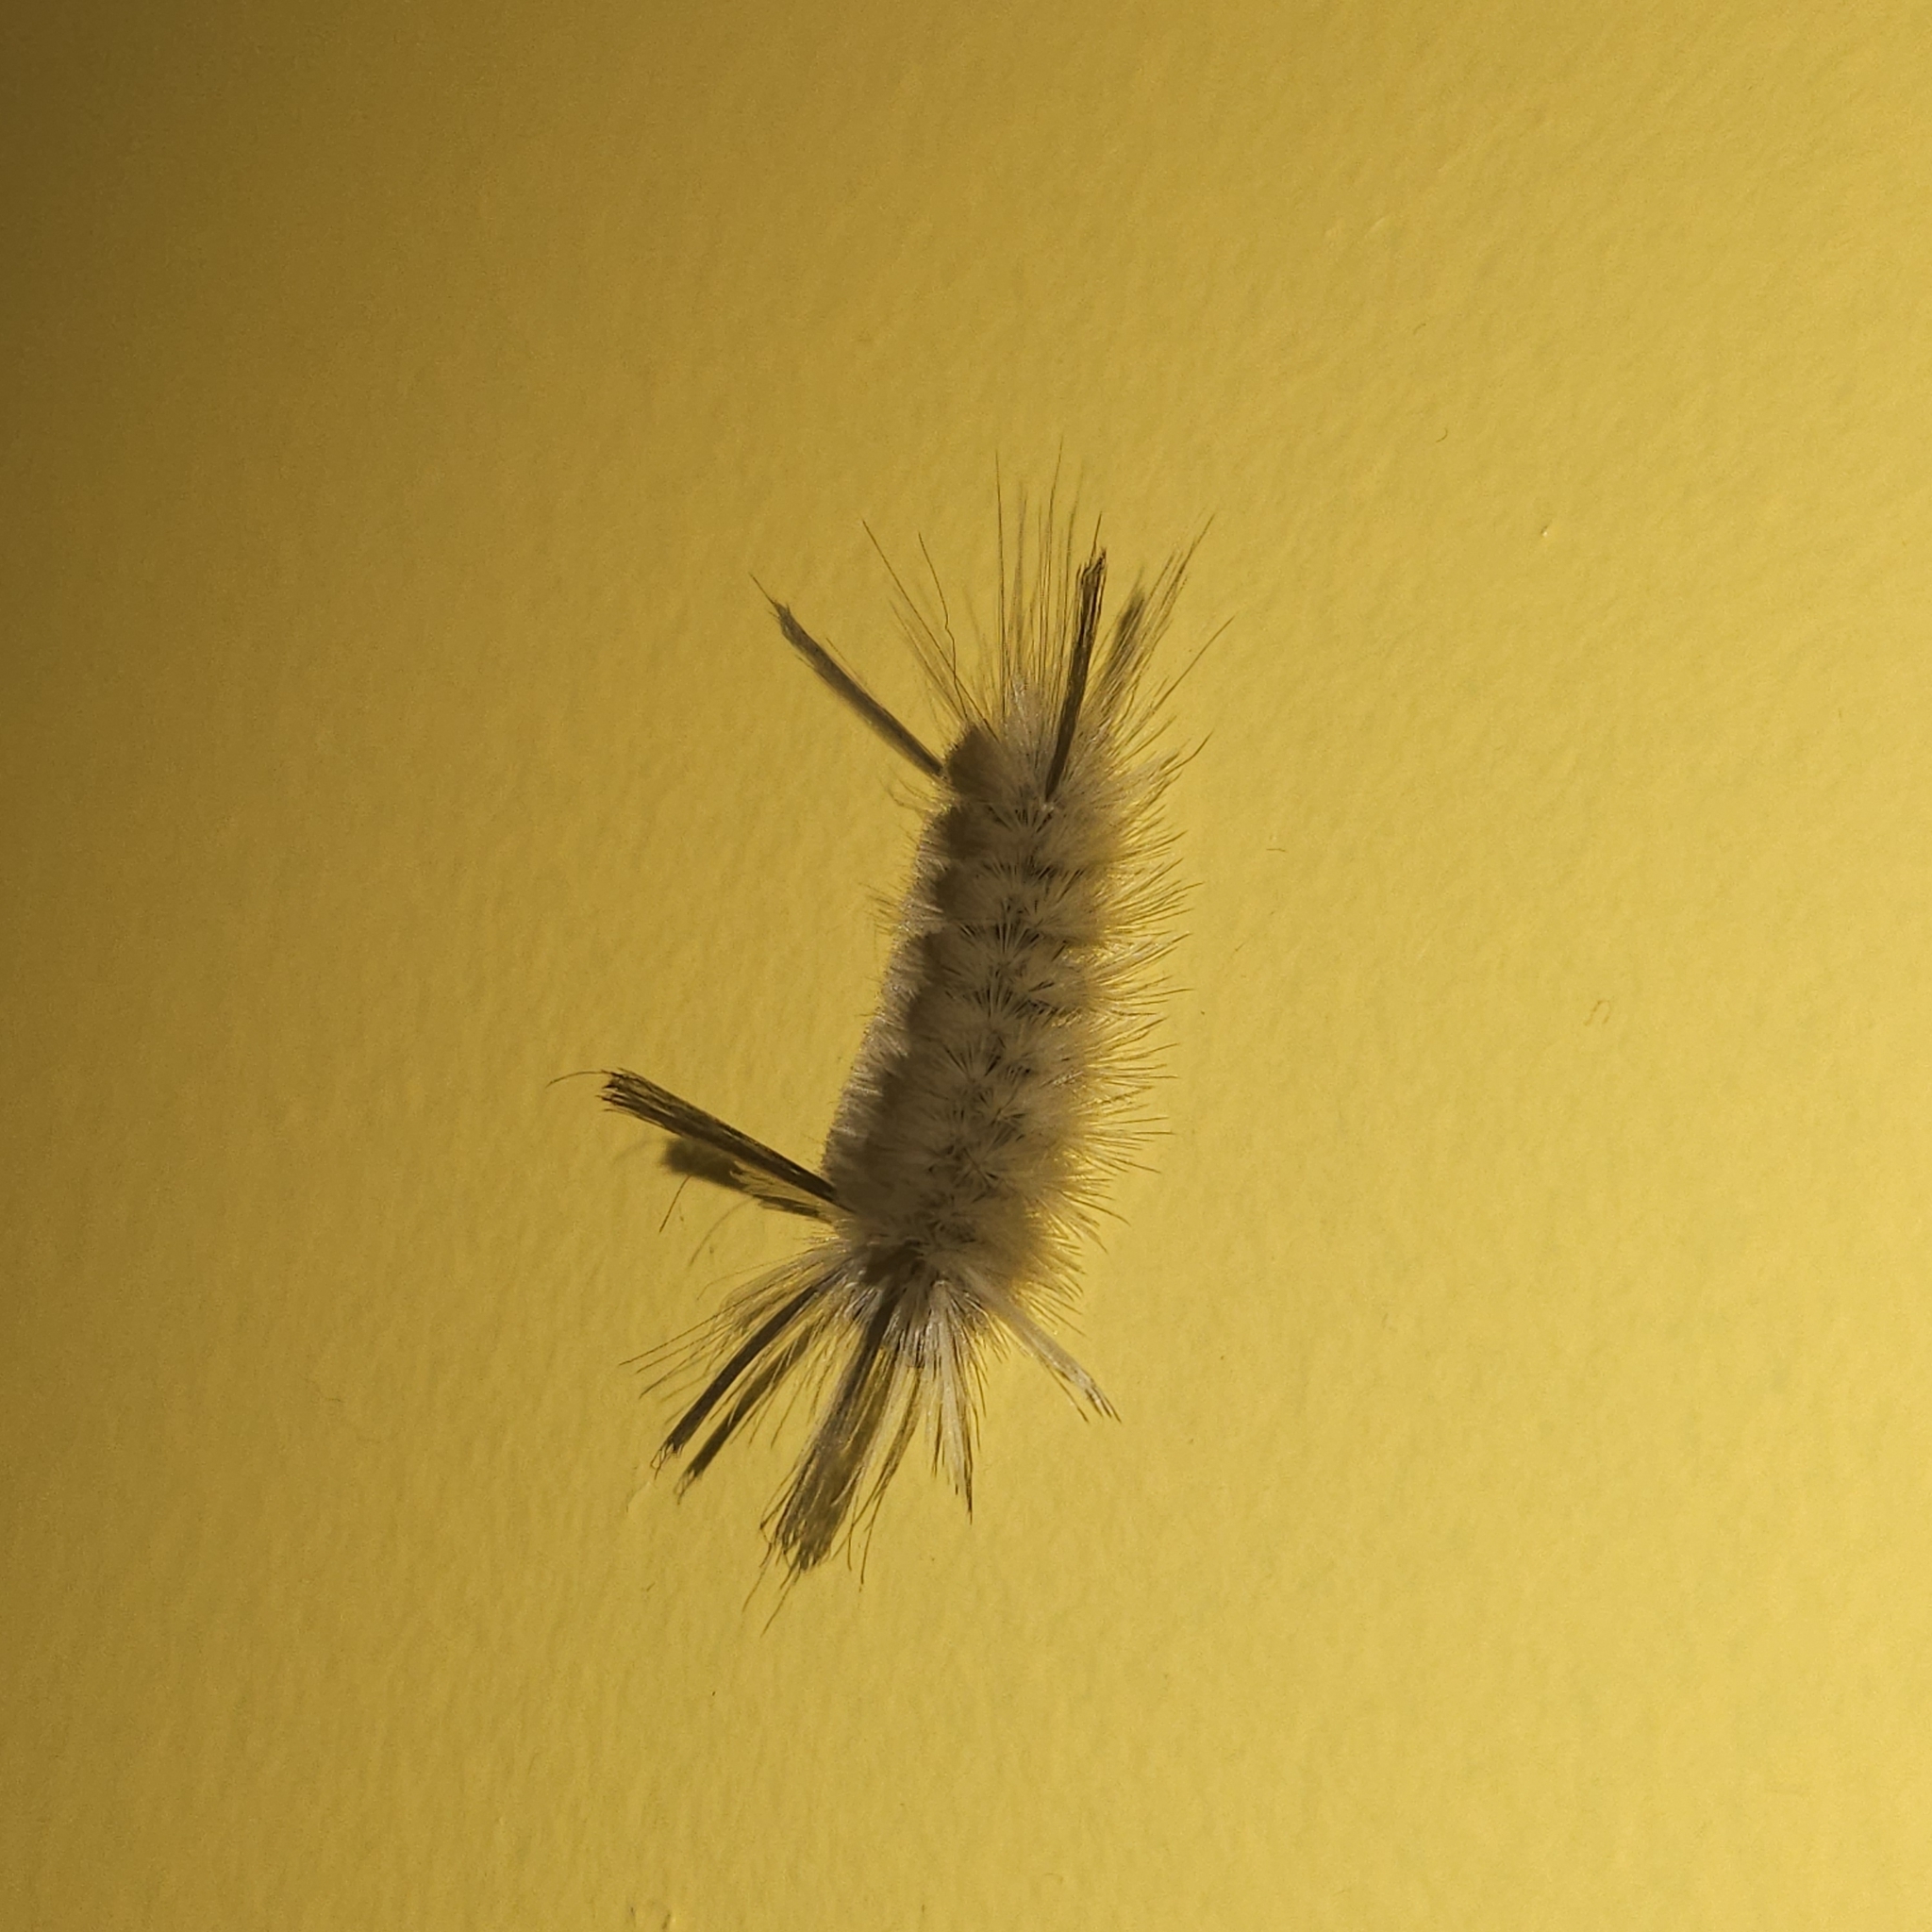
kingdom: Animalia
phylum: Arthropoda
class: Insecta
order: Lepidoptera
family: Erebidae
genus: Halysidota
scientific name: Halysidota tessellaris
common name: Banded tussock moth
